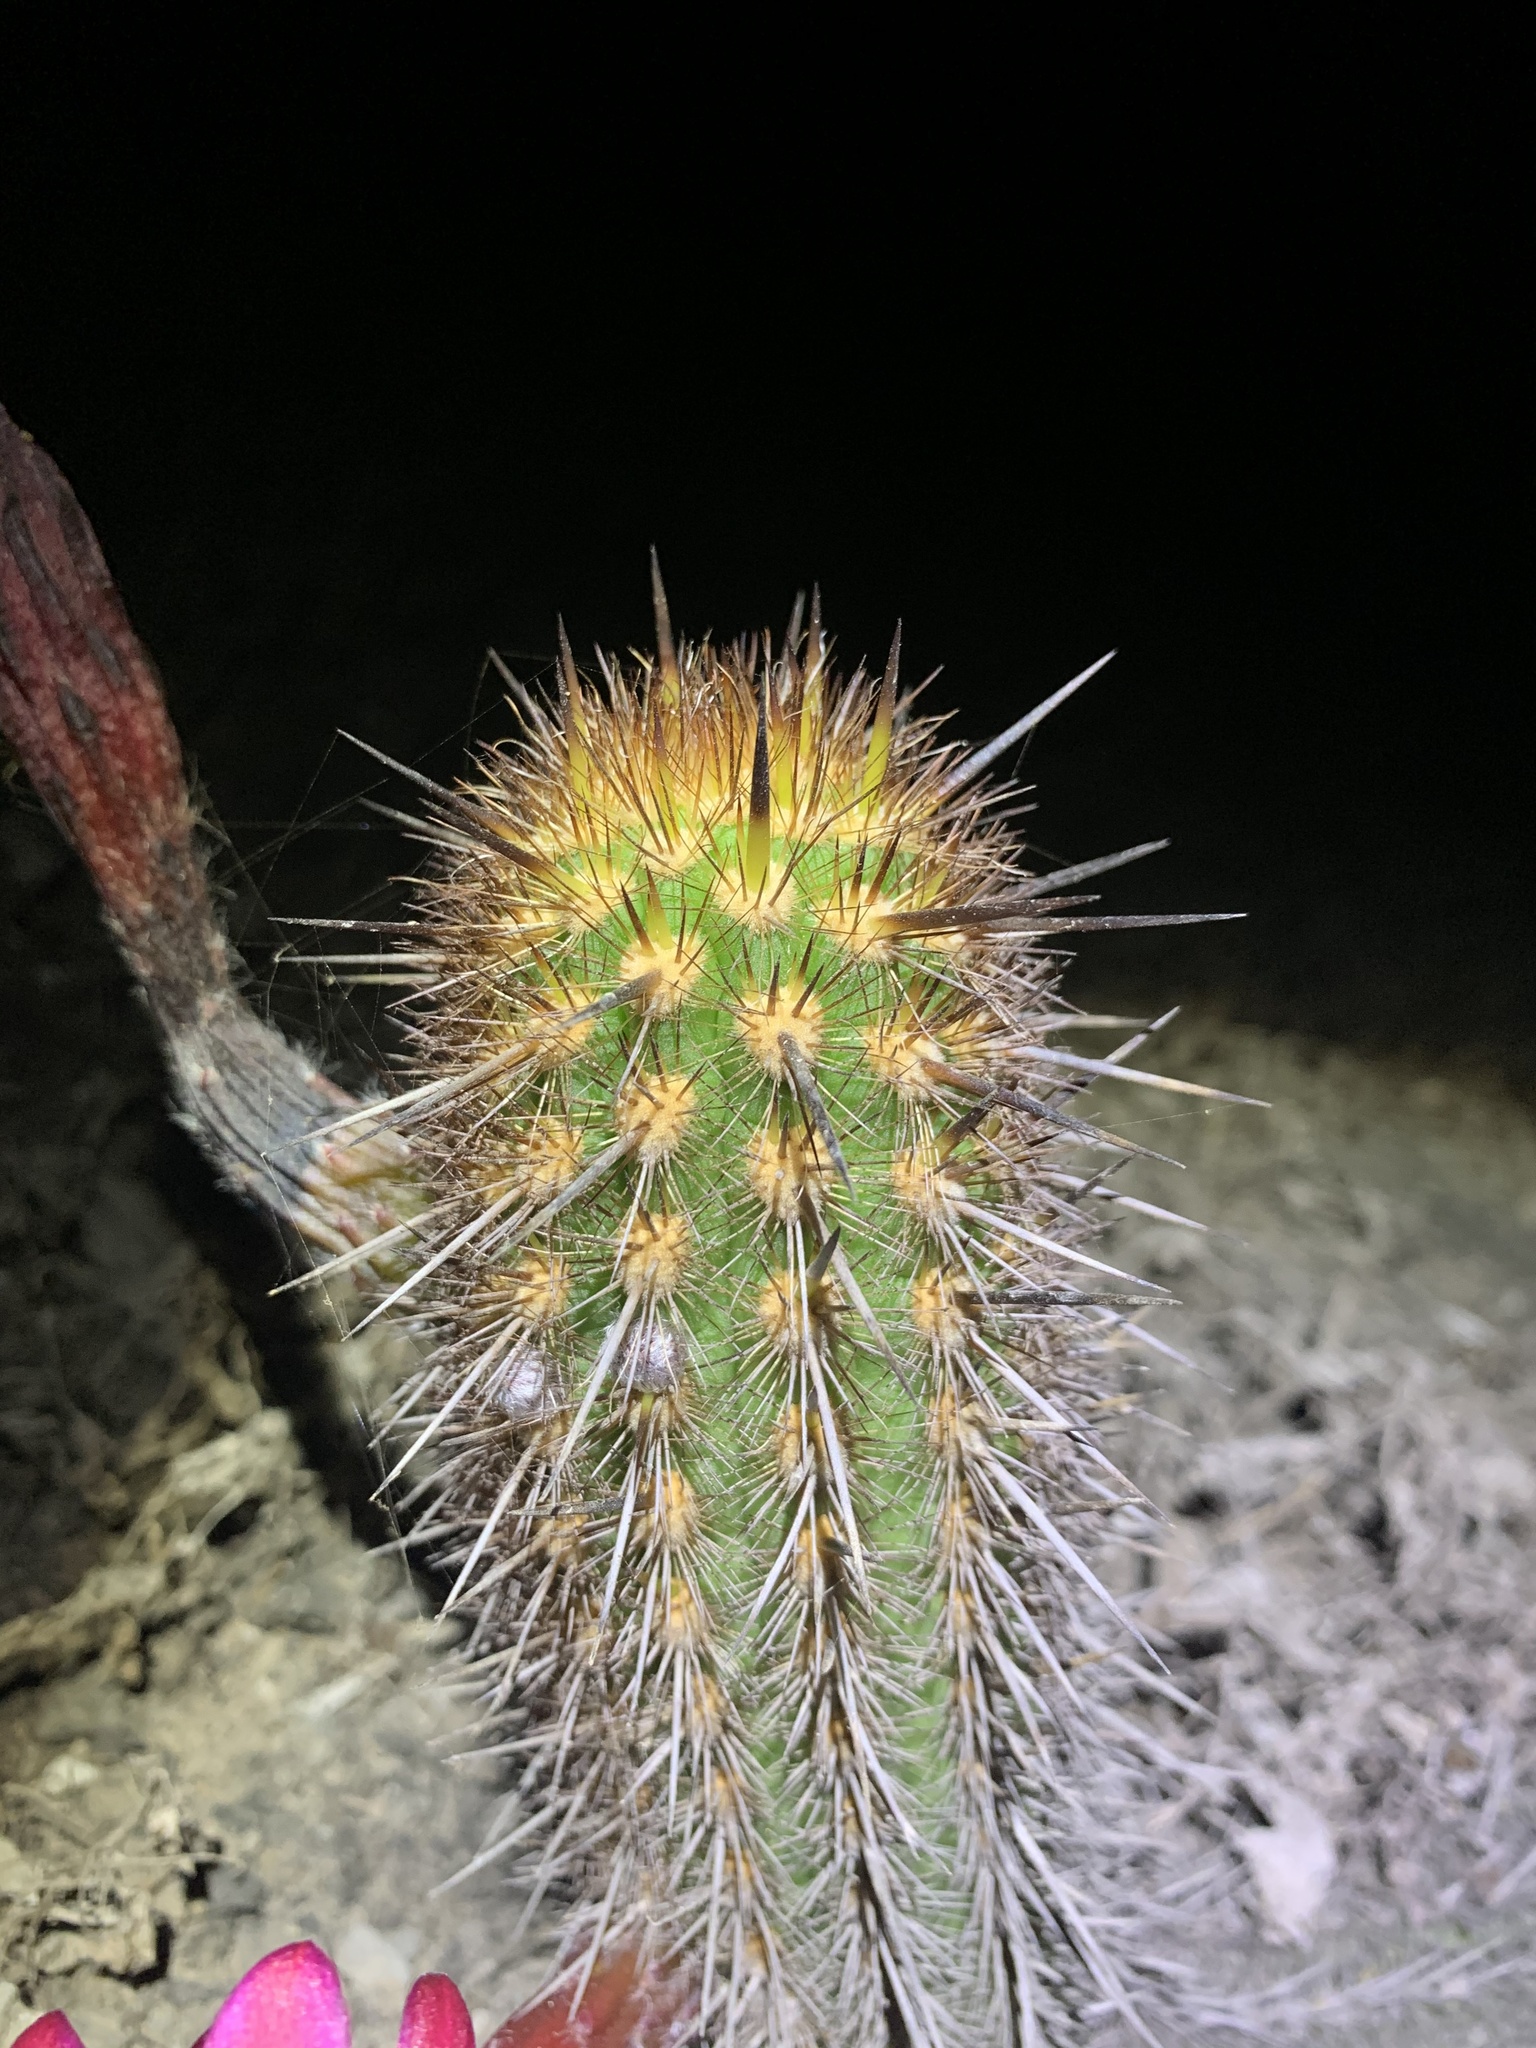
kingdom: Plantae
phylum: Tracheophyta
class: Magnoliopsida
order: Caryophyllales
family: Cactaceae
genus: Haageocereus
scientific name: Haageocereus pseudomelanostele
